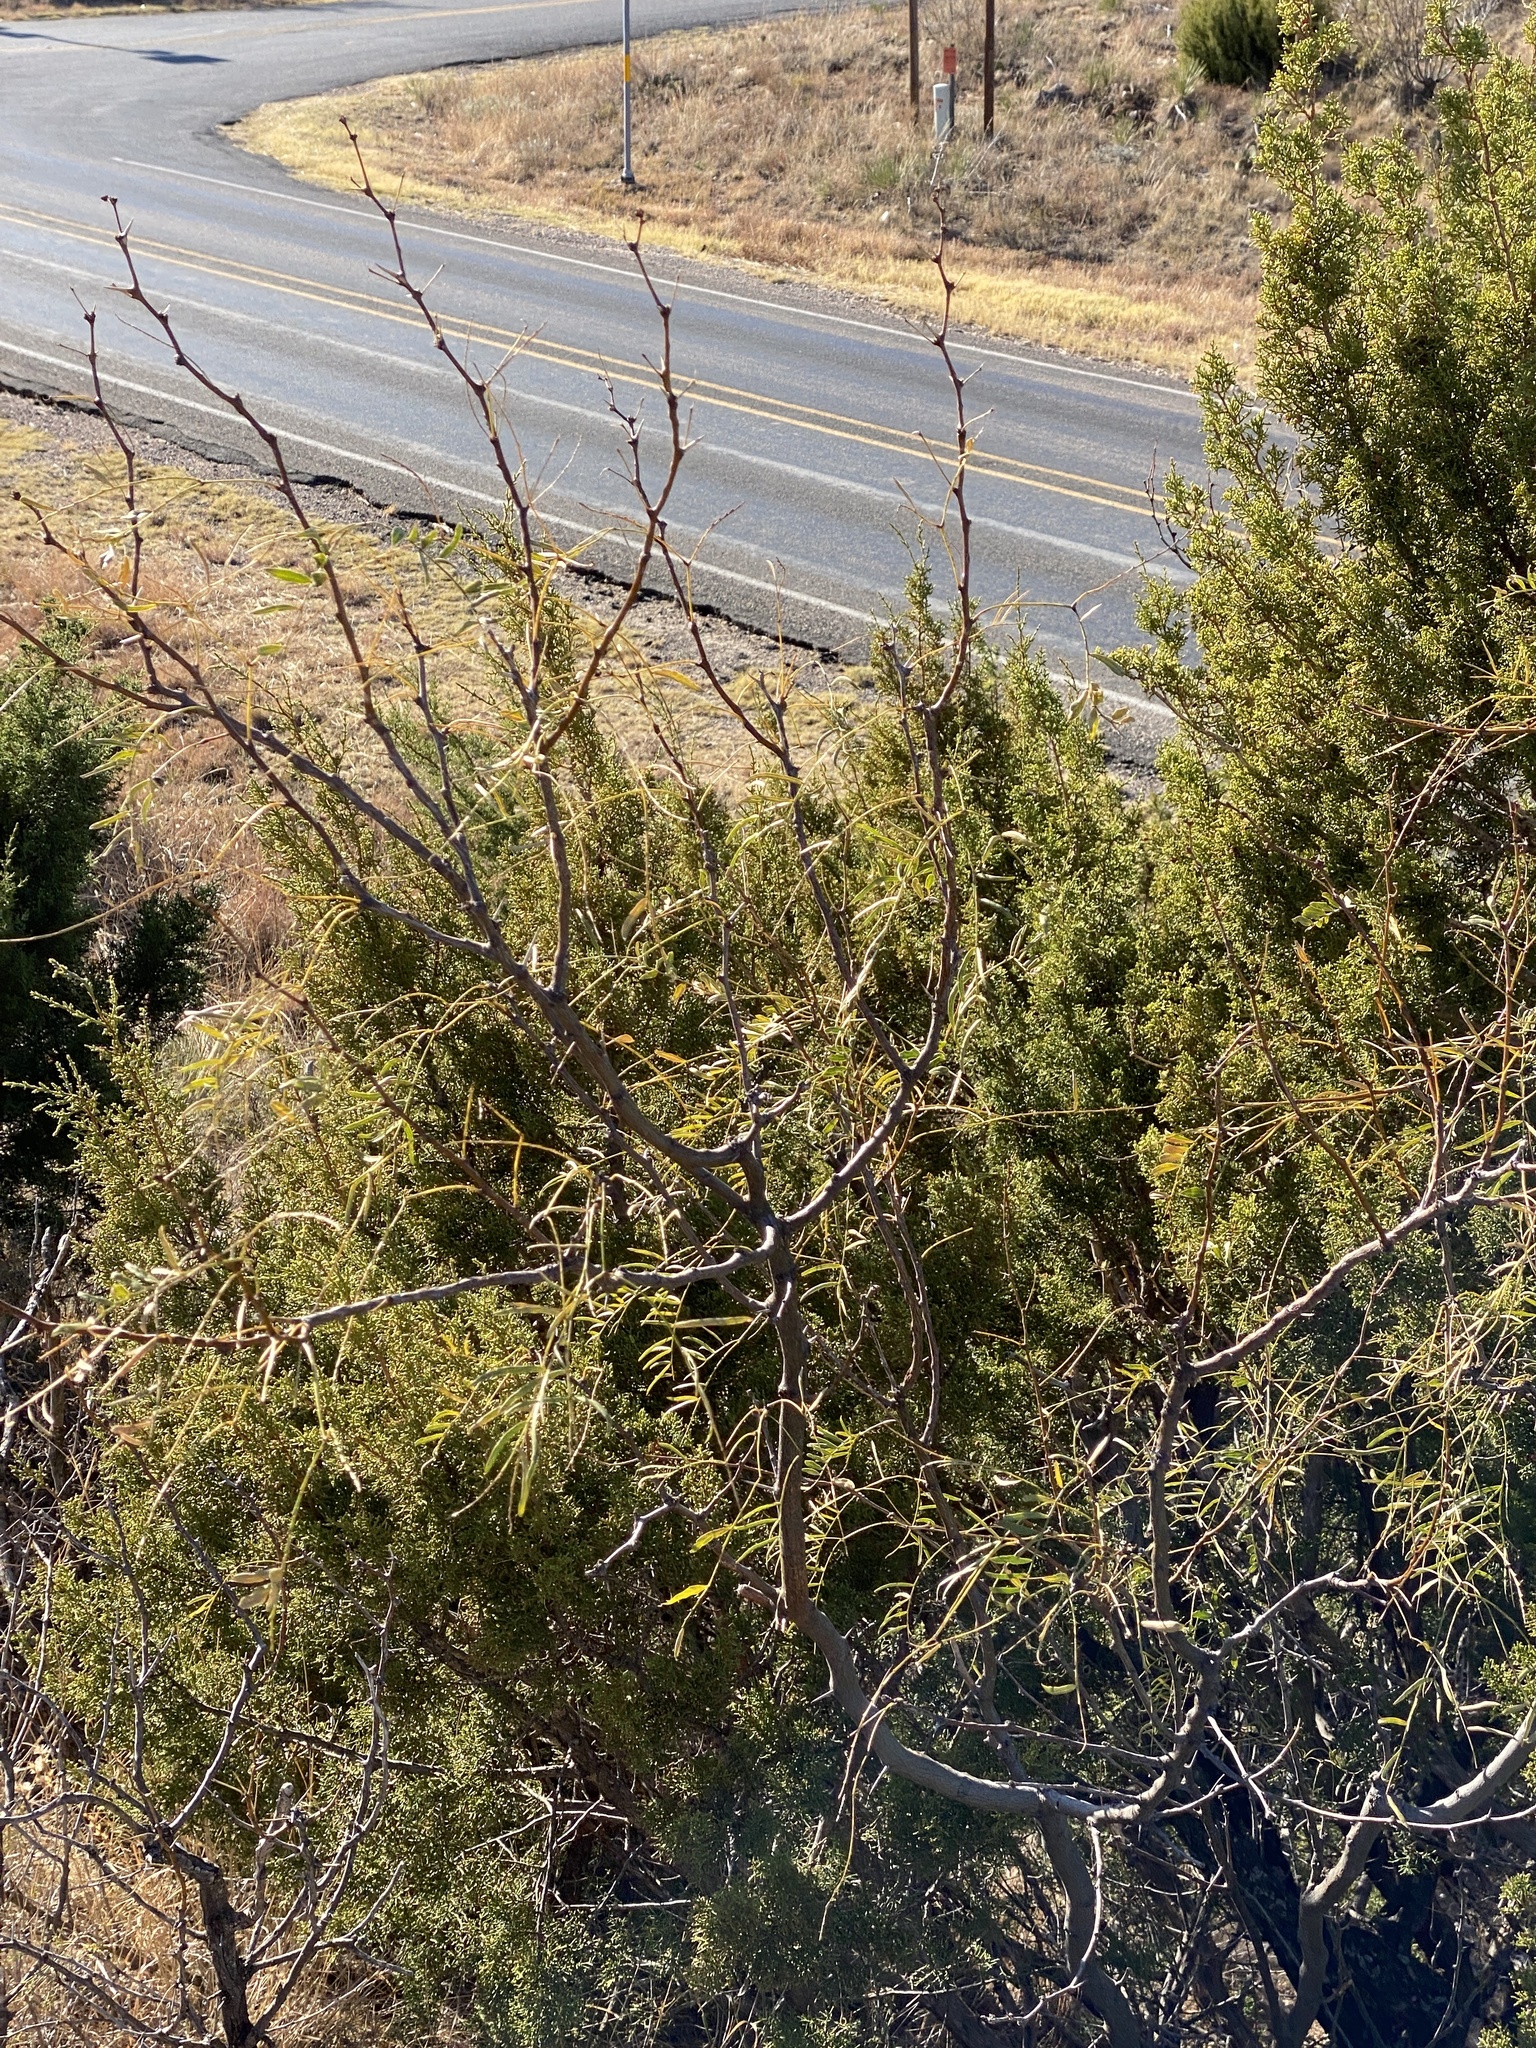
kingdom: Plantae
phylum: Tracheophyta
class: Magnoliopsida
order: Fabales
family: Fabaceae
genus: Prosopis
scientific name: Prosopis glandulosa
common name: Honey mesquite
